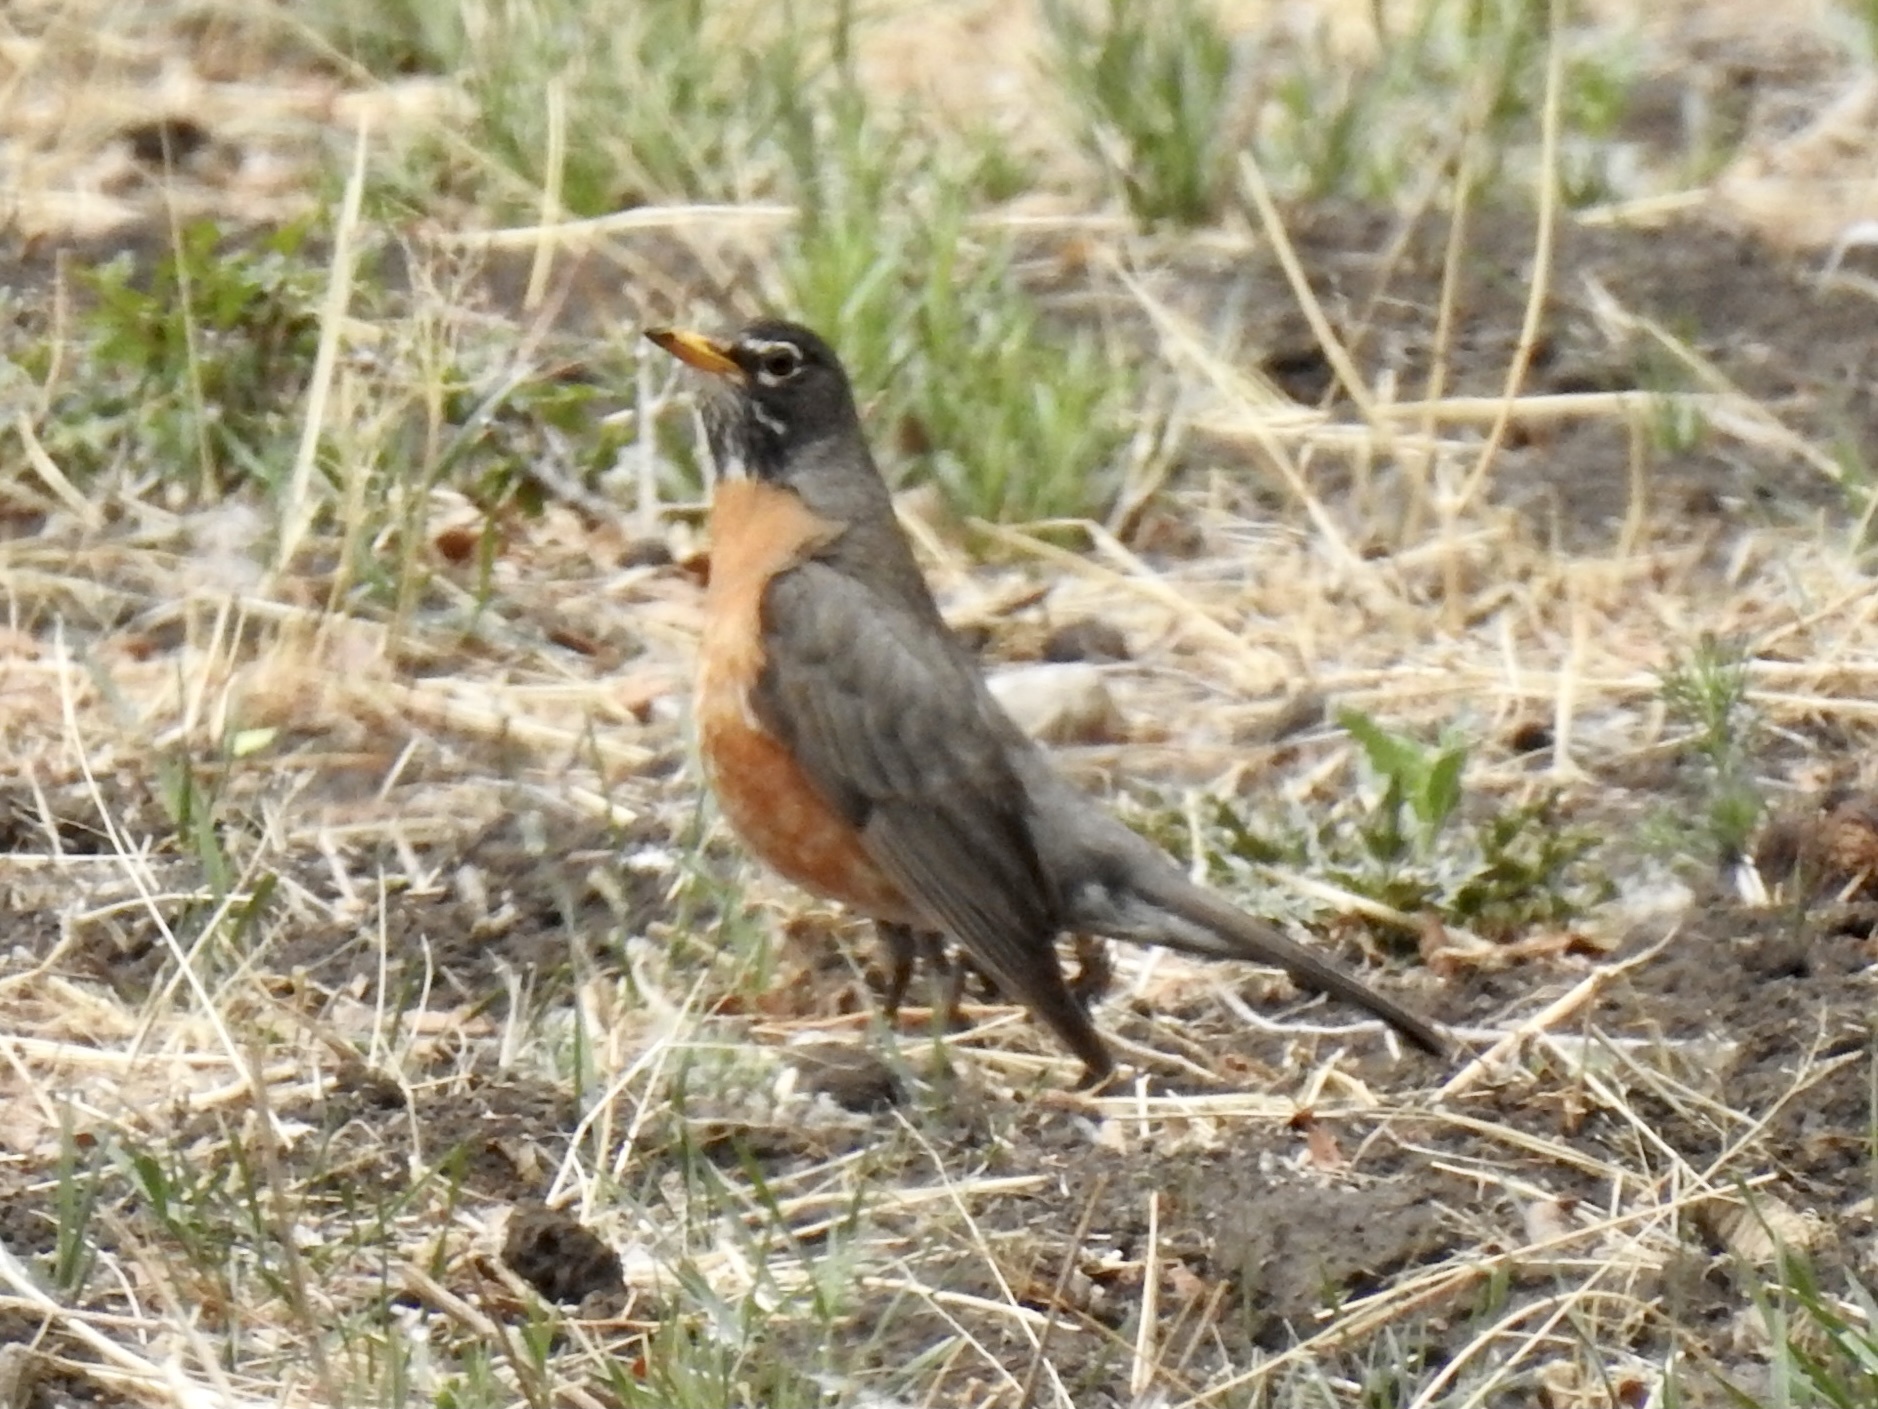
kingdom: Animalia
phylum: Chordata
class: Aves
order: Passeriformes
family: Turdidae
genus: Turdus
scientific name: Turdus migratorius
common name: American robin
